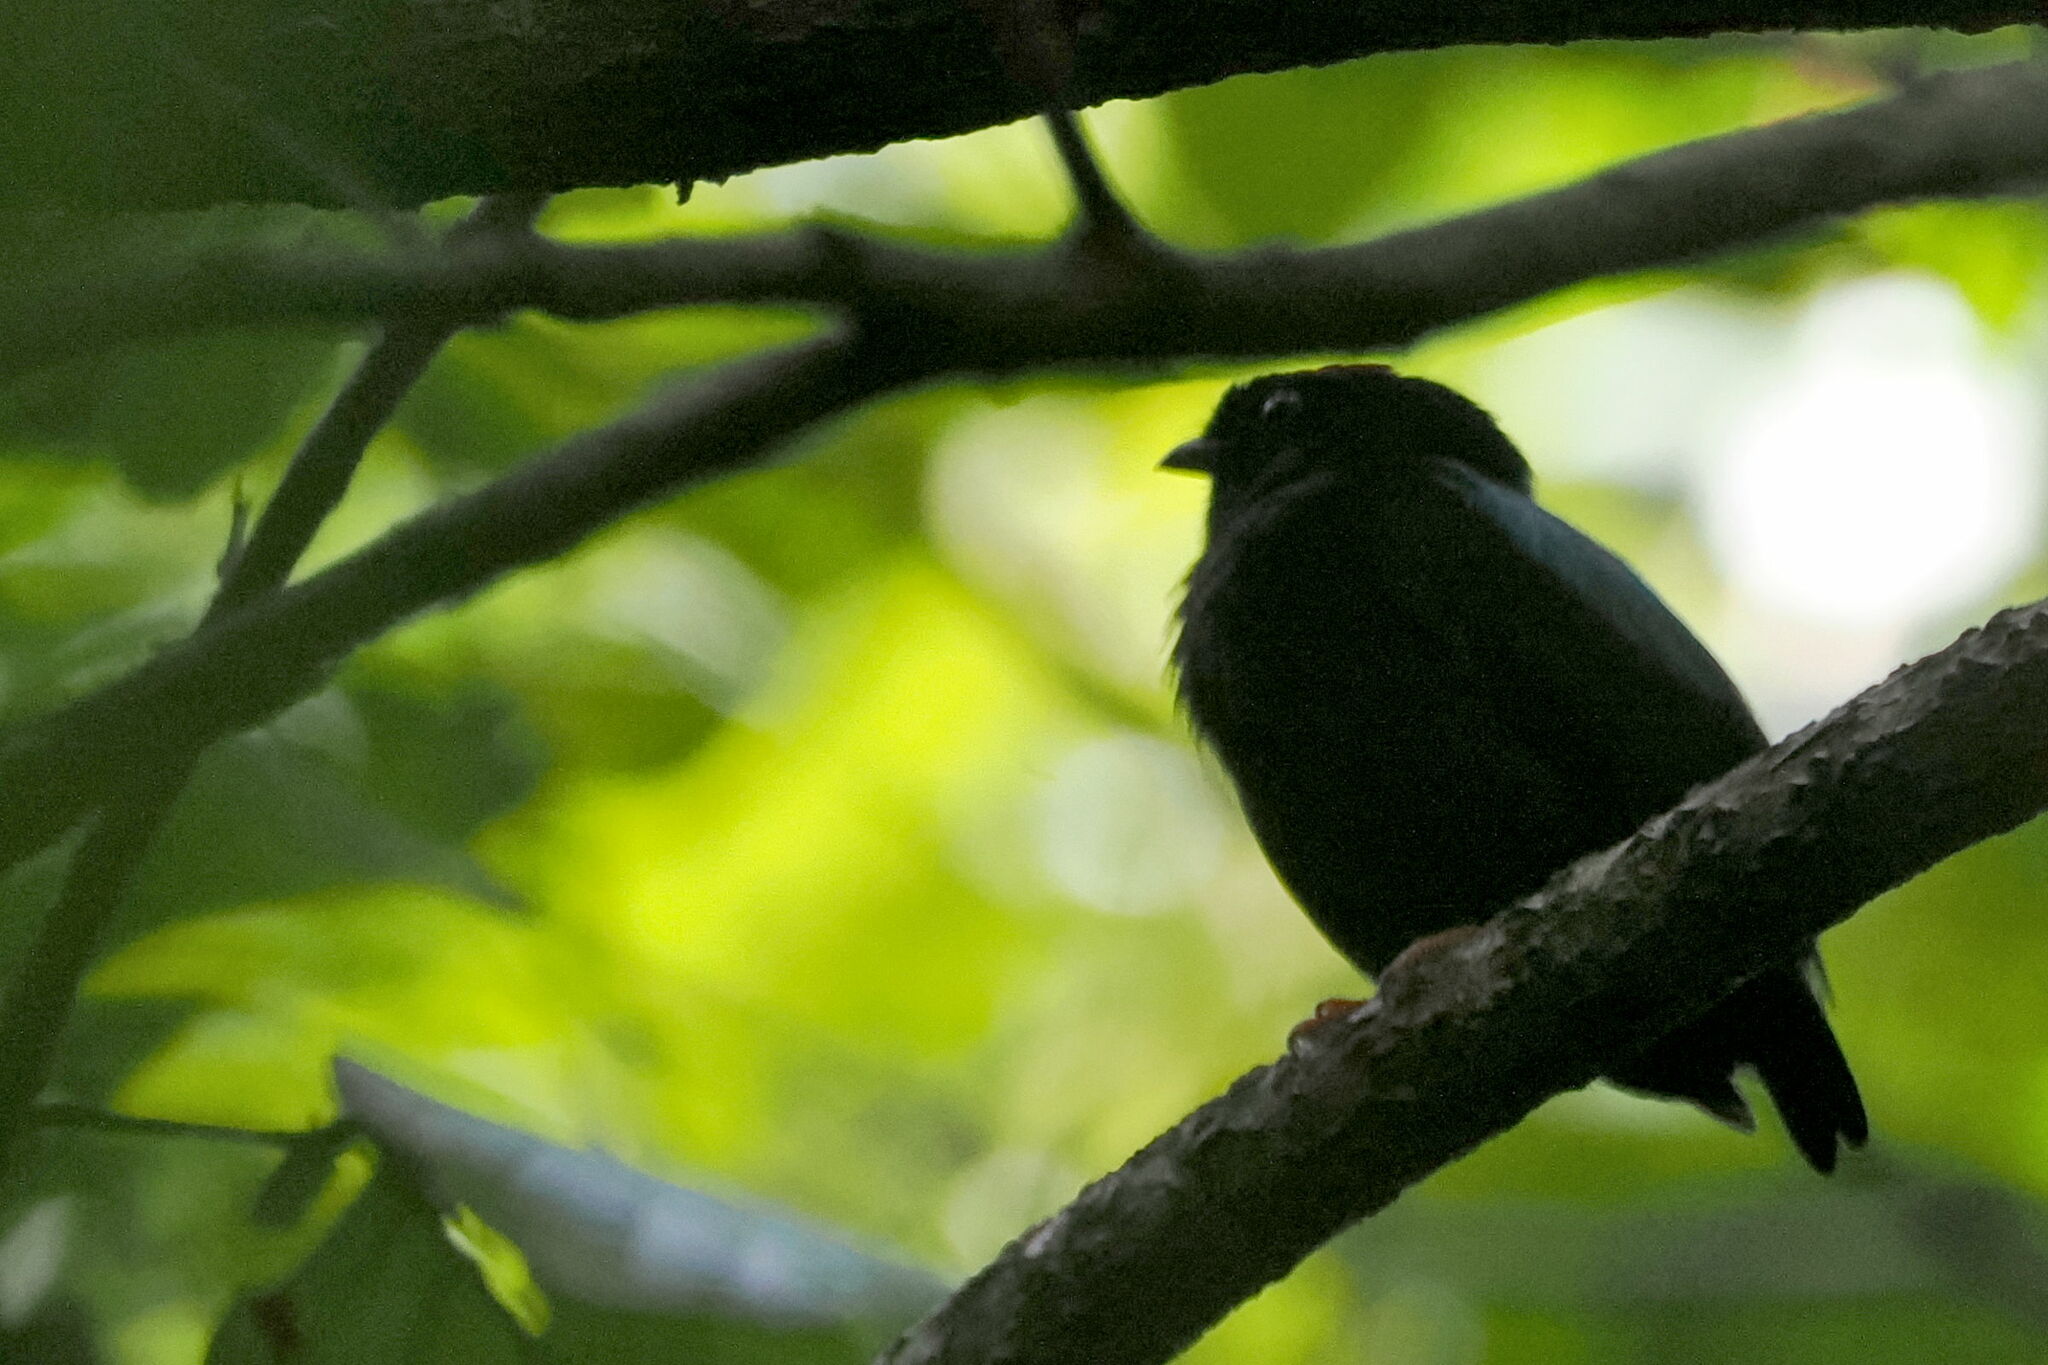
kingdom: Animalia
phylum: Chordata
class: Aves
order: Passeriformes
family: Pipridae
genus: Chiroxiphia
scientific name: Chiroxiphia pareola
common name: Blue-backed manakin
